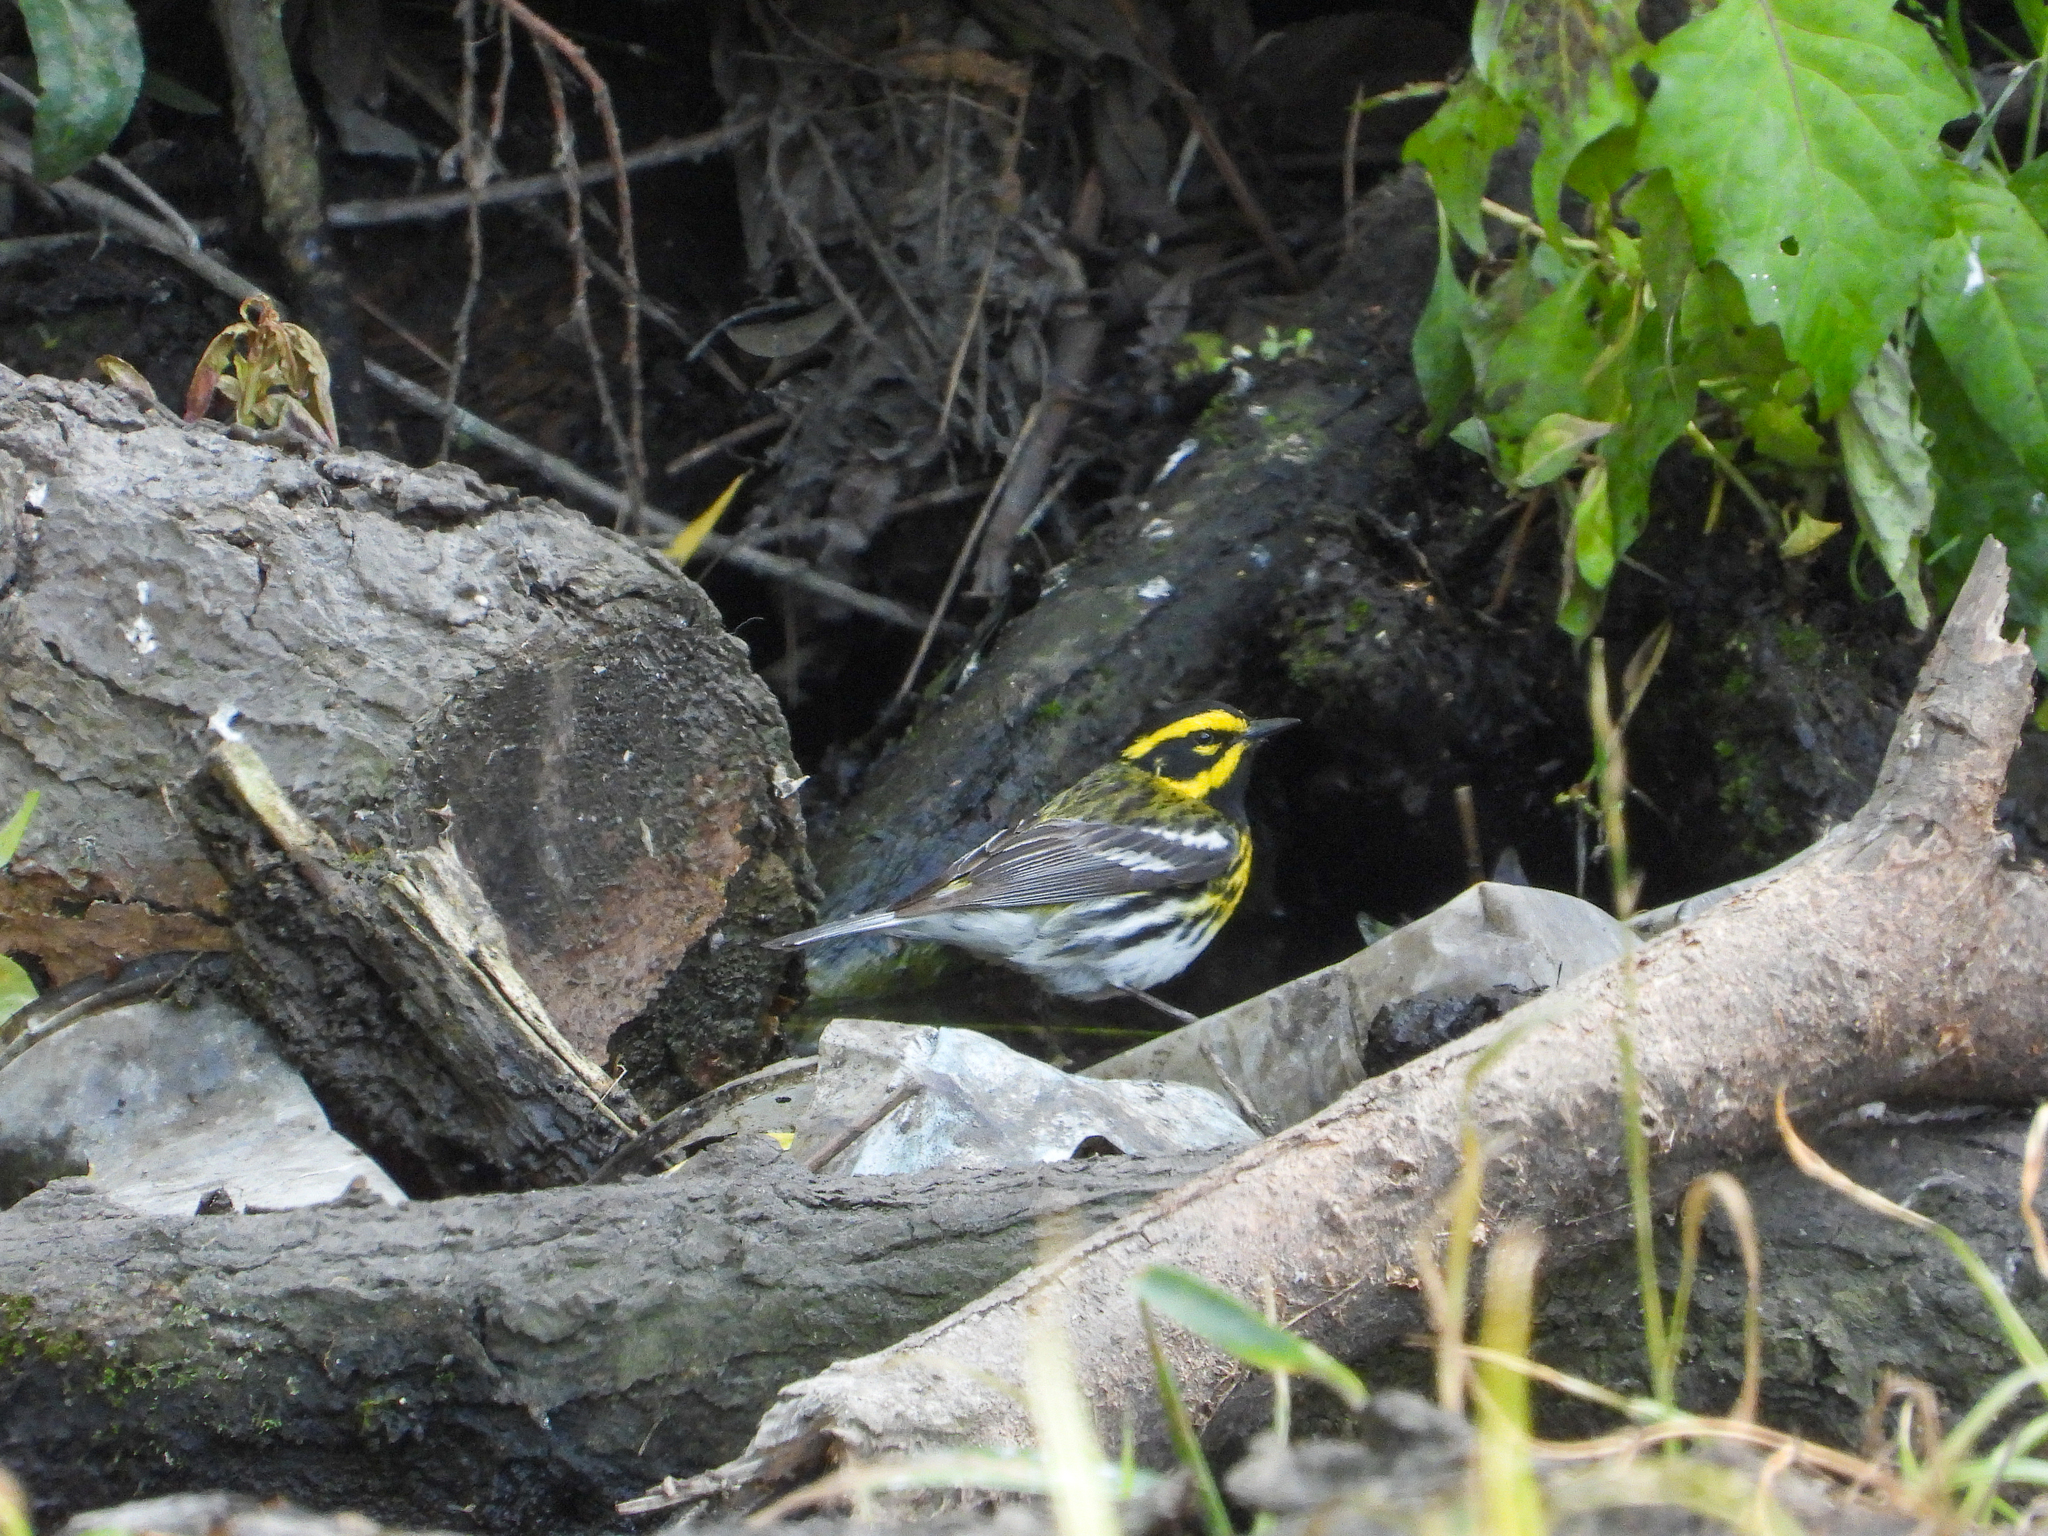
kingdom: Animalia
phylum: Chordata
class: Aves
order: Passeriformes
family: Parulidae
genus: Setophaga
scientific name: Setophaga townsendi
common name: Townsend's warbler
